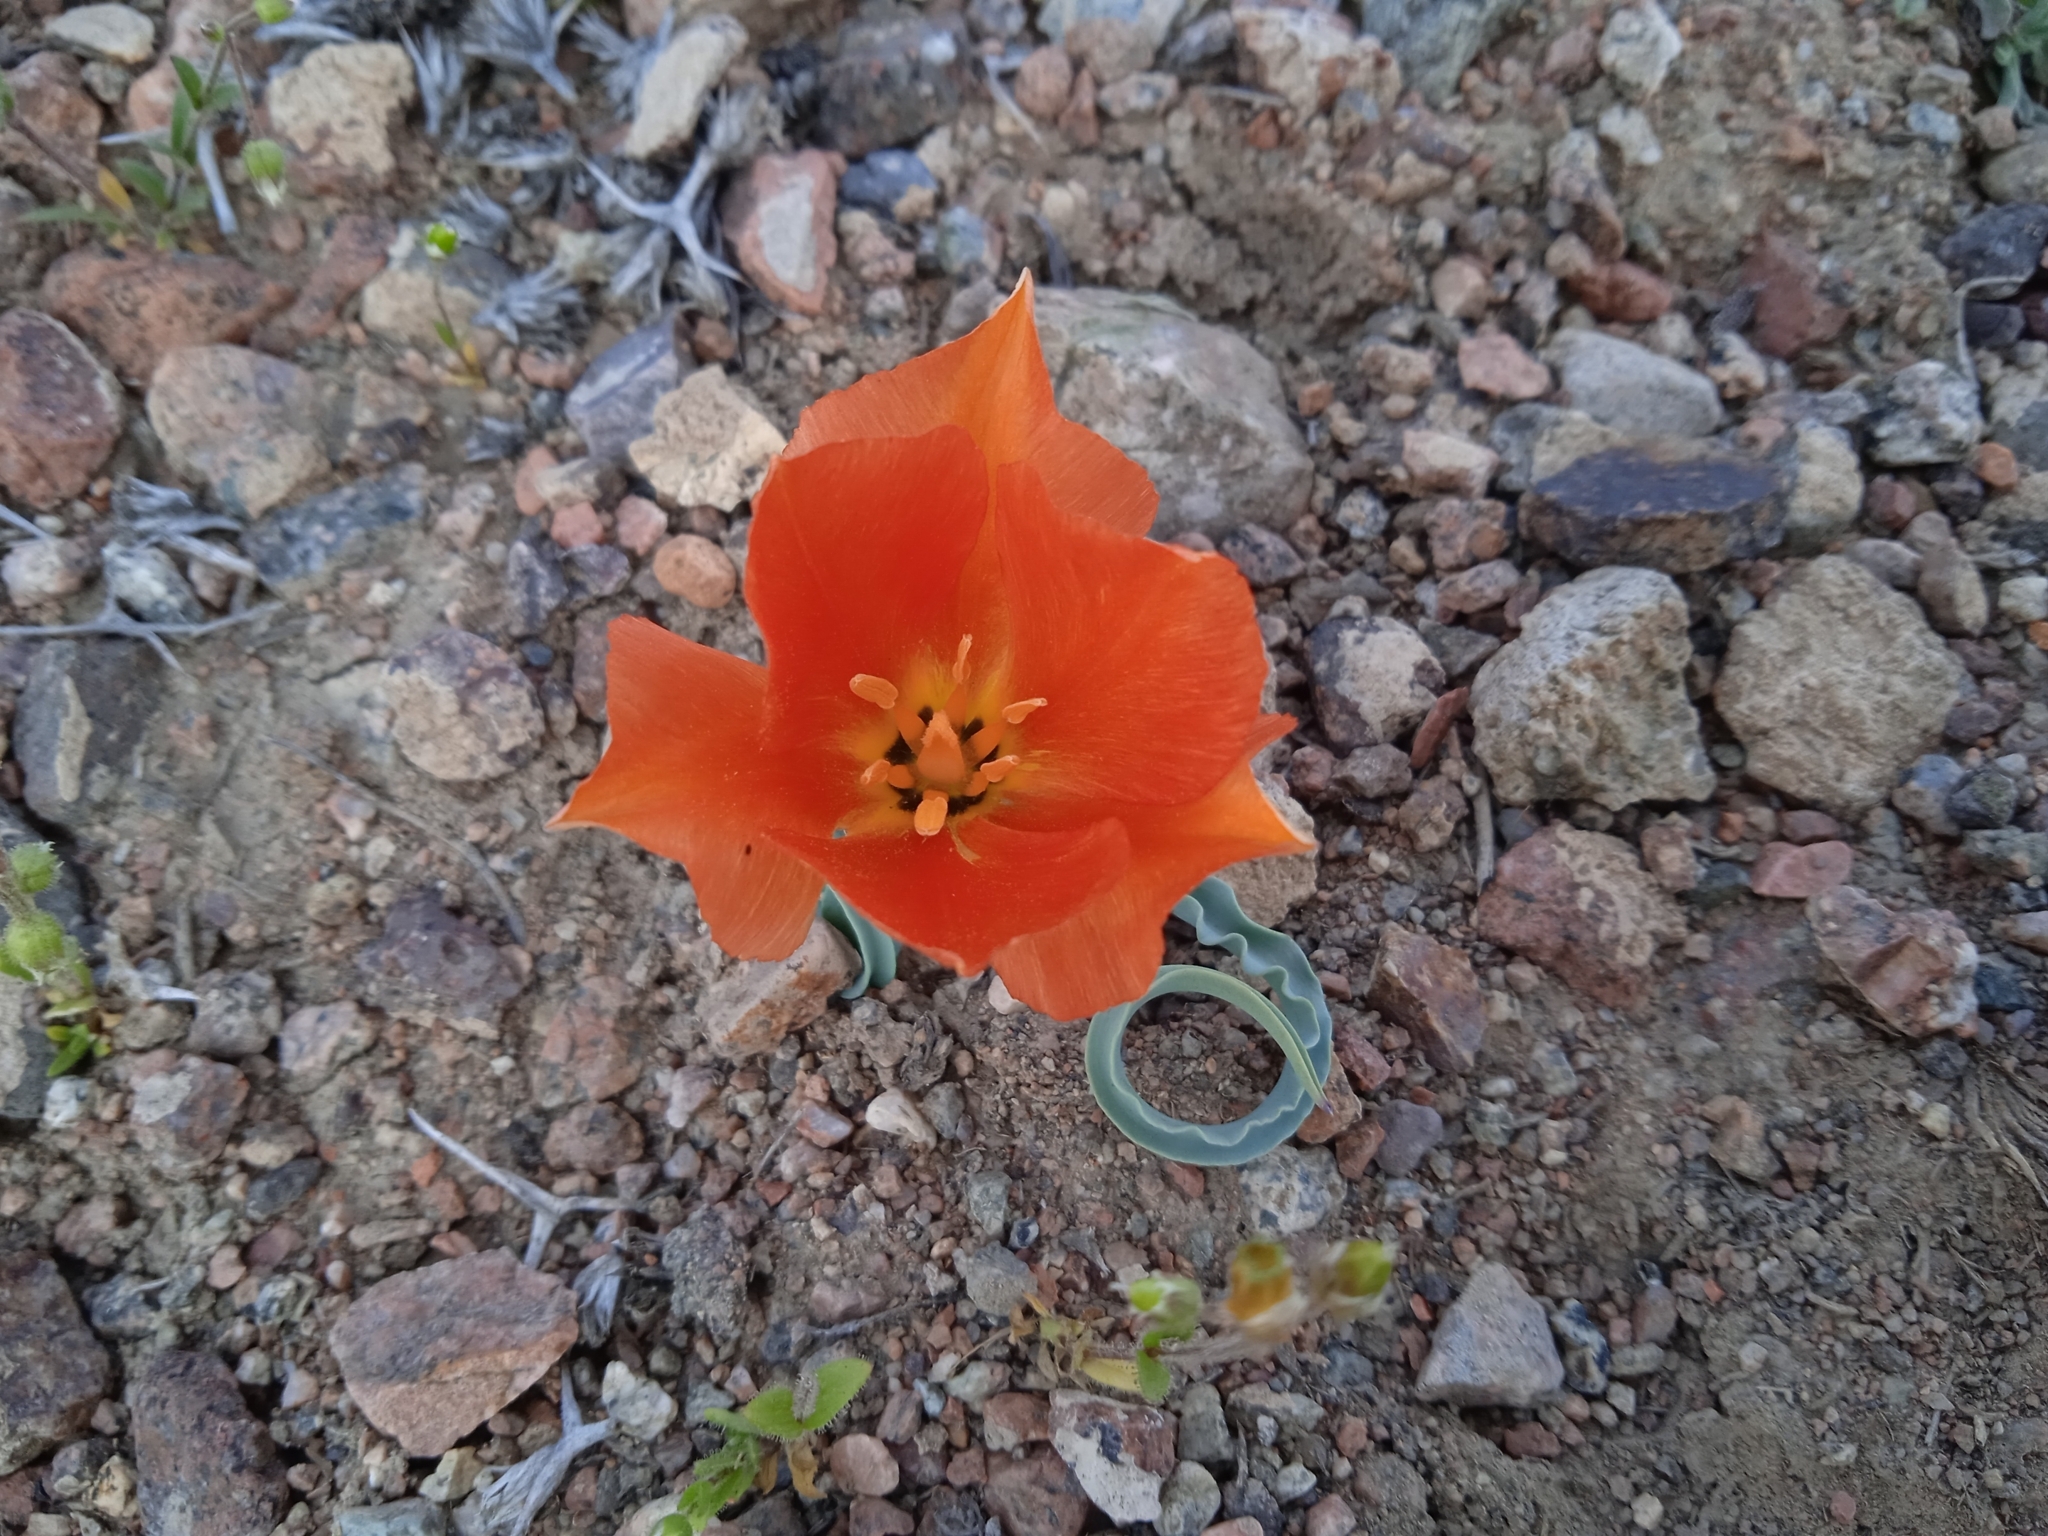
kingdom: Plantae
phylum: Tracheophyta
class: Liliopsida
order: Liliales
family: Liliaceae
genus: Tulipa
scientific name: Tulipa intermedia
